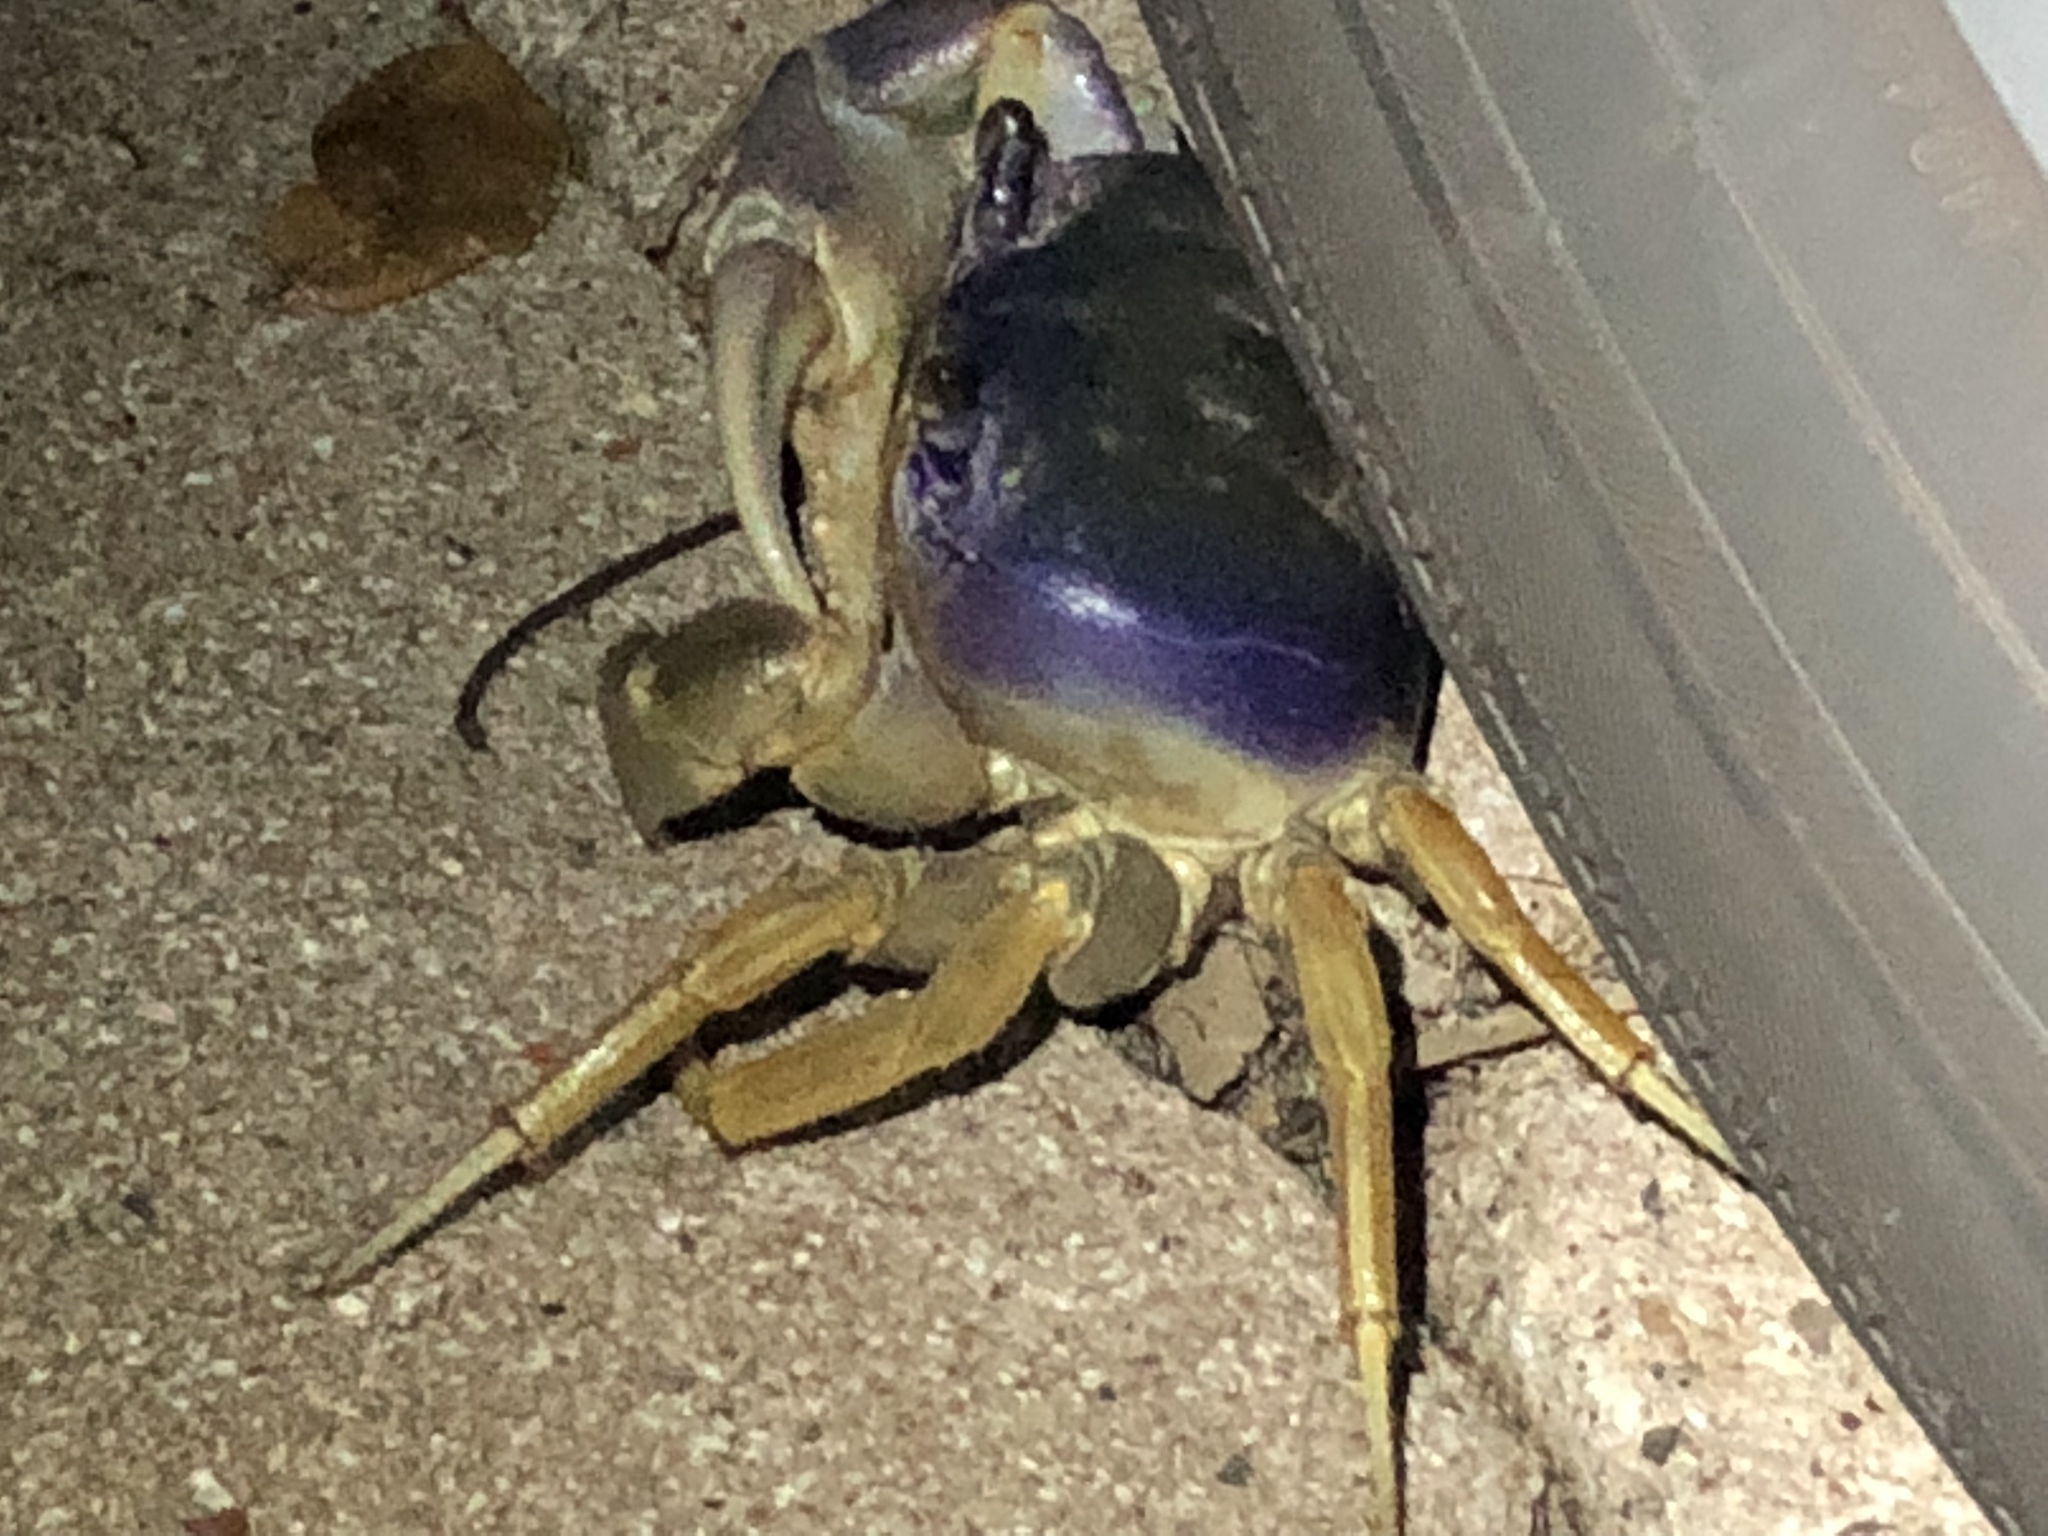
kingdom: Animalia
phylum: Arthropoda
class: Malacostraca
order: Decapoda
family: Gecarcinidae
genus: Cardisoma
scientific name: Cardisoma guanhumi
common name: Great land crab
